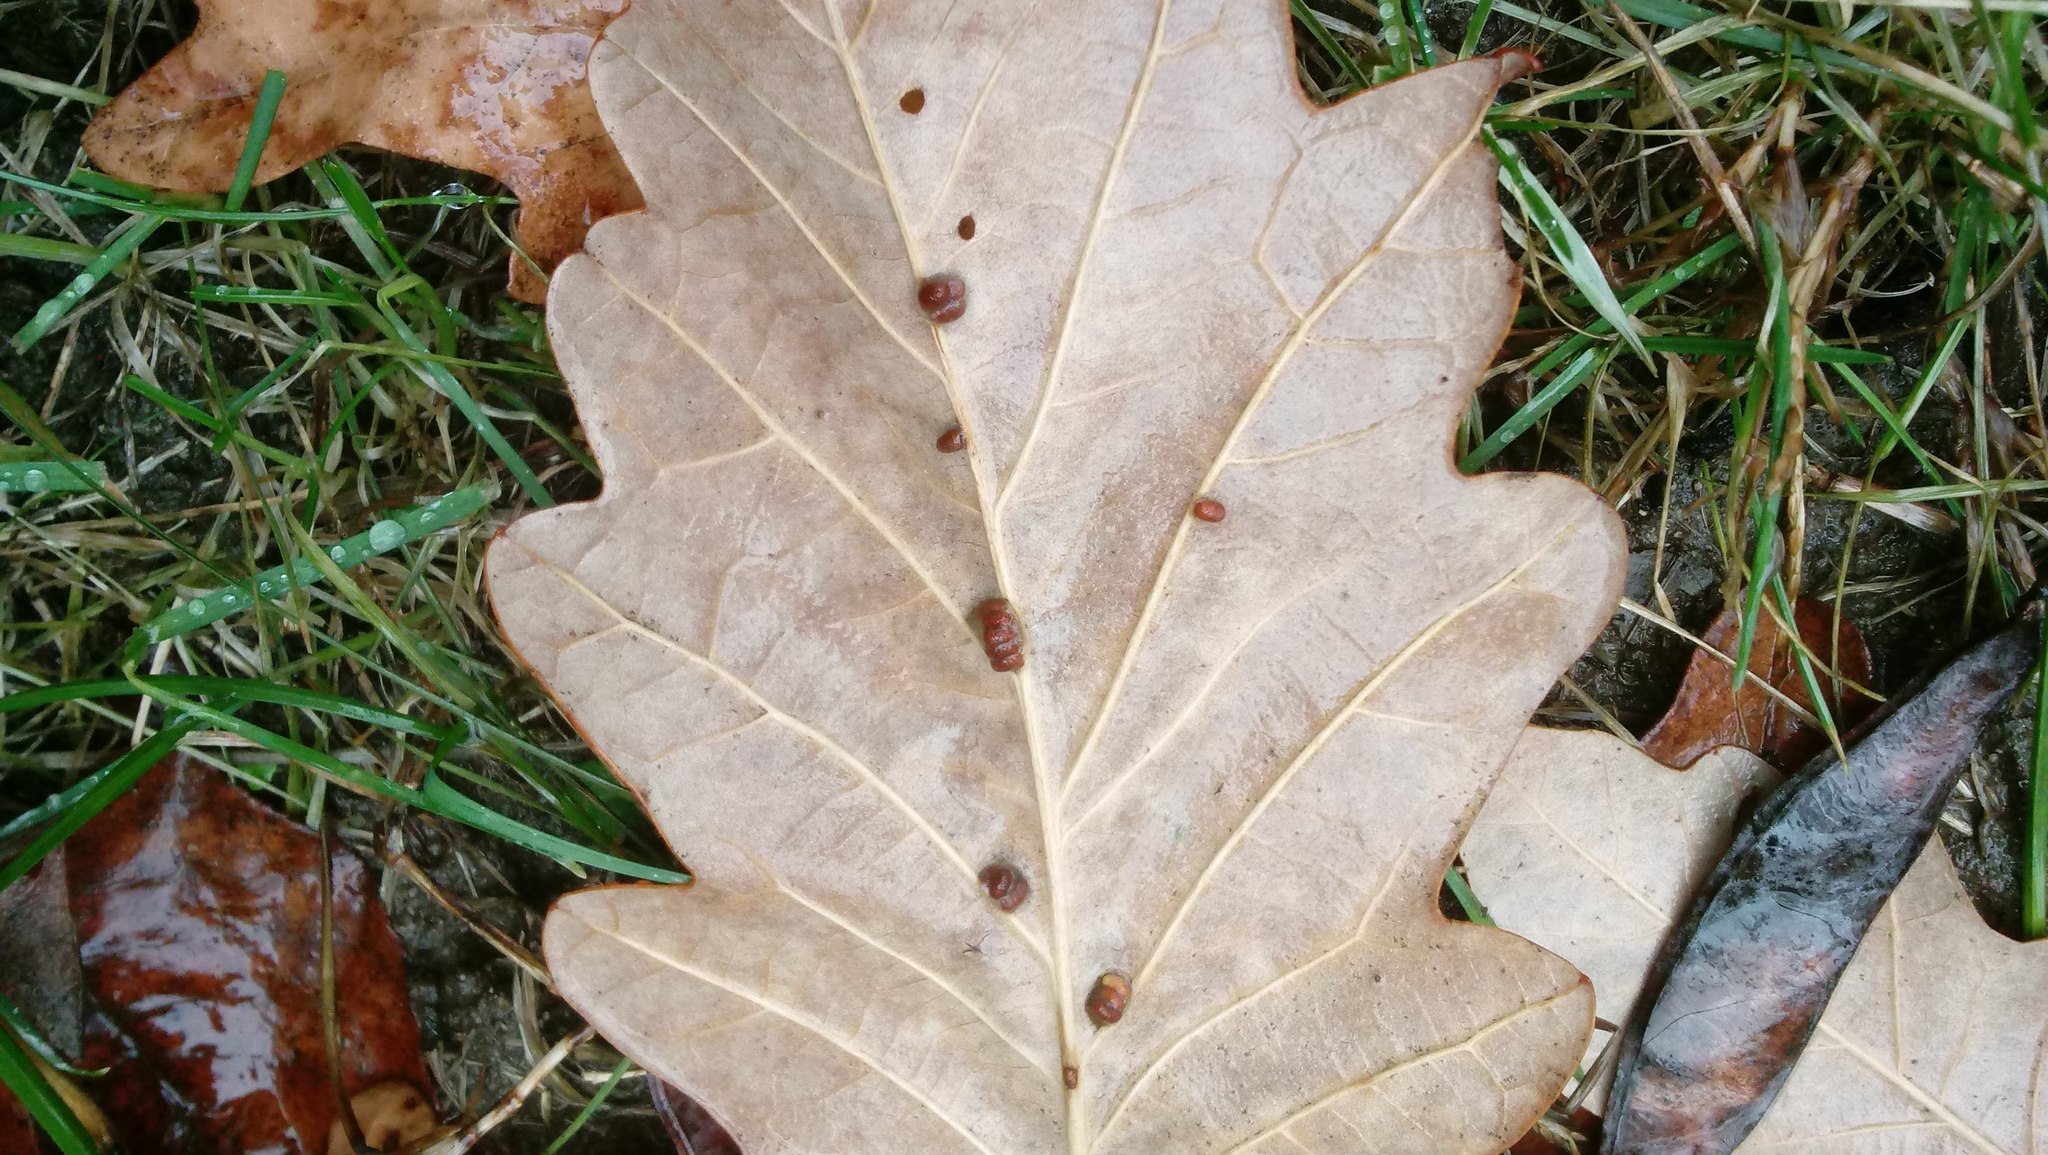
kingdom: Animalia
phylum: Arthropoda
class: Insecta
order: Hymenoptera
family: Cynipidae
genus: Andricus
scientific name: Andricus Druon ignotum
